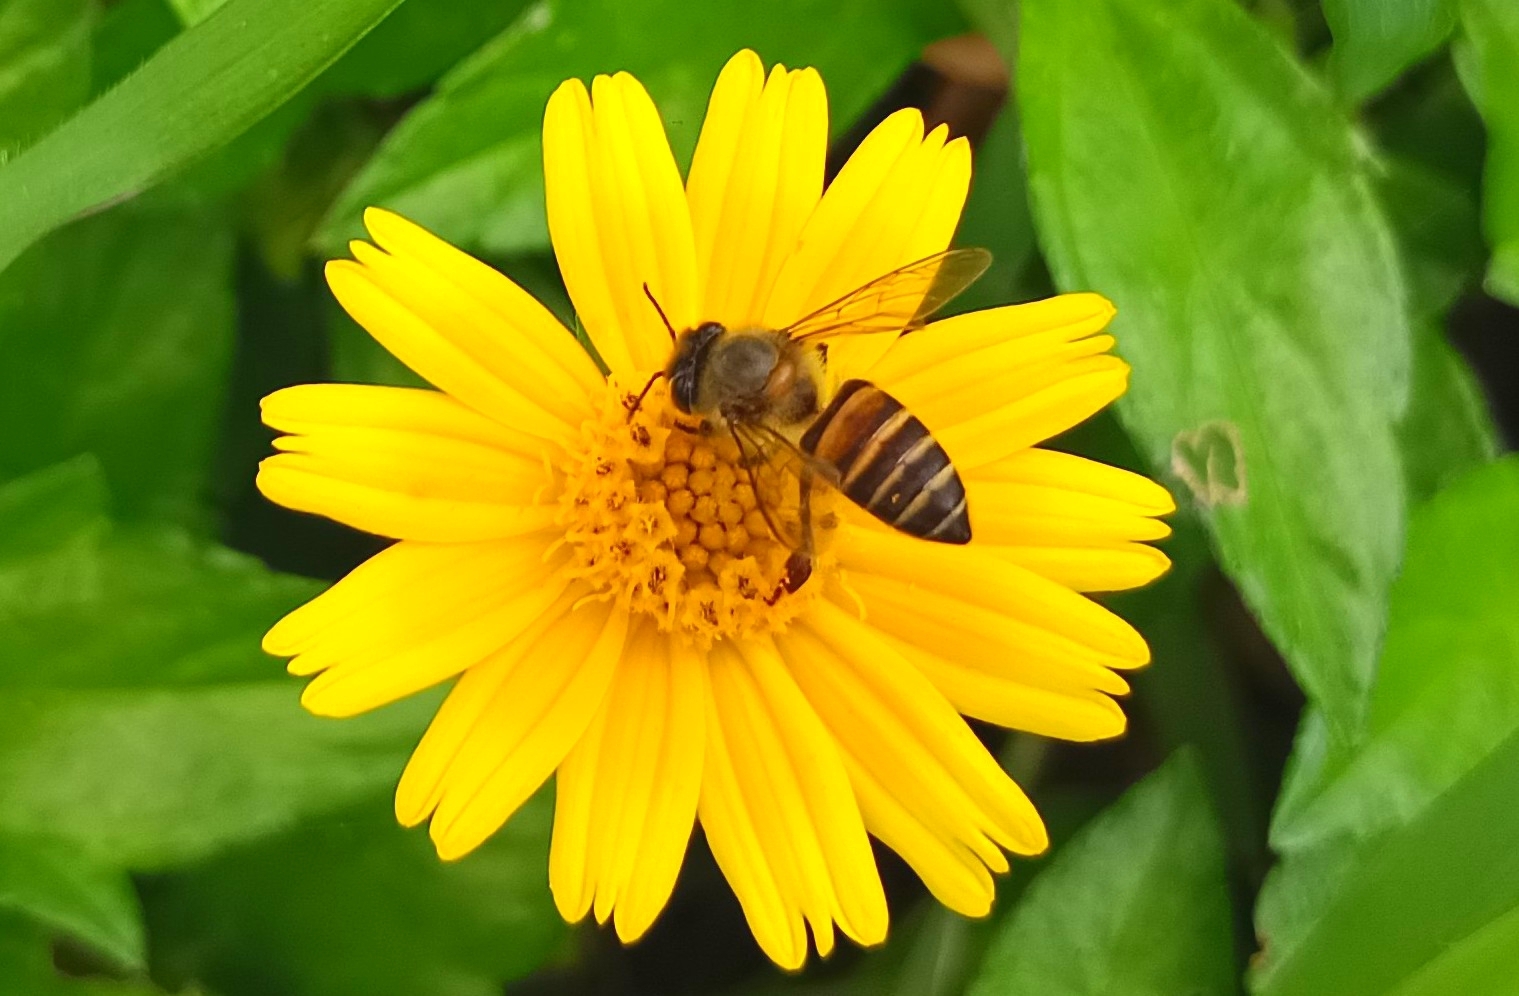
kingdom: Animalia
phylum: Arthropoda
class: Insecta
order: Hymenoptera
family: Apidae
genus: Apis
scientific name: Apis cerana
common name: Honey bee
